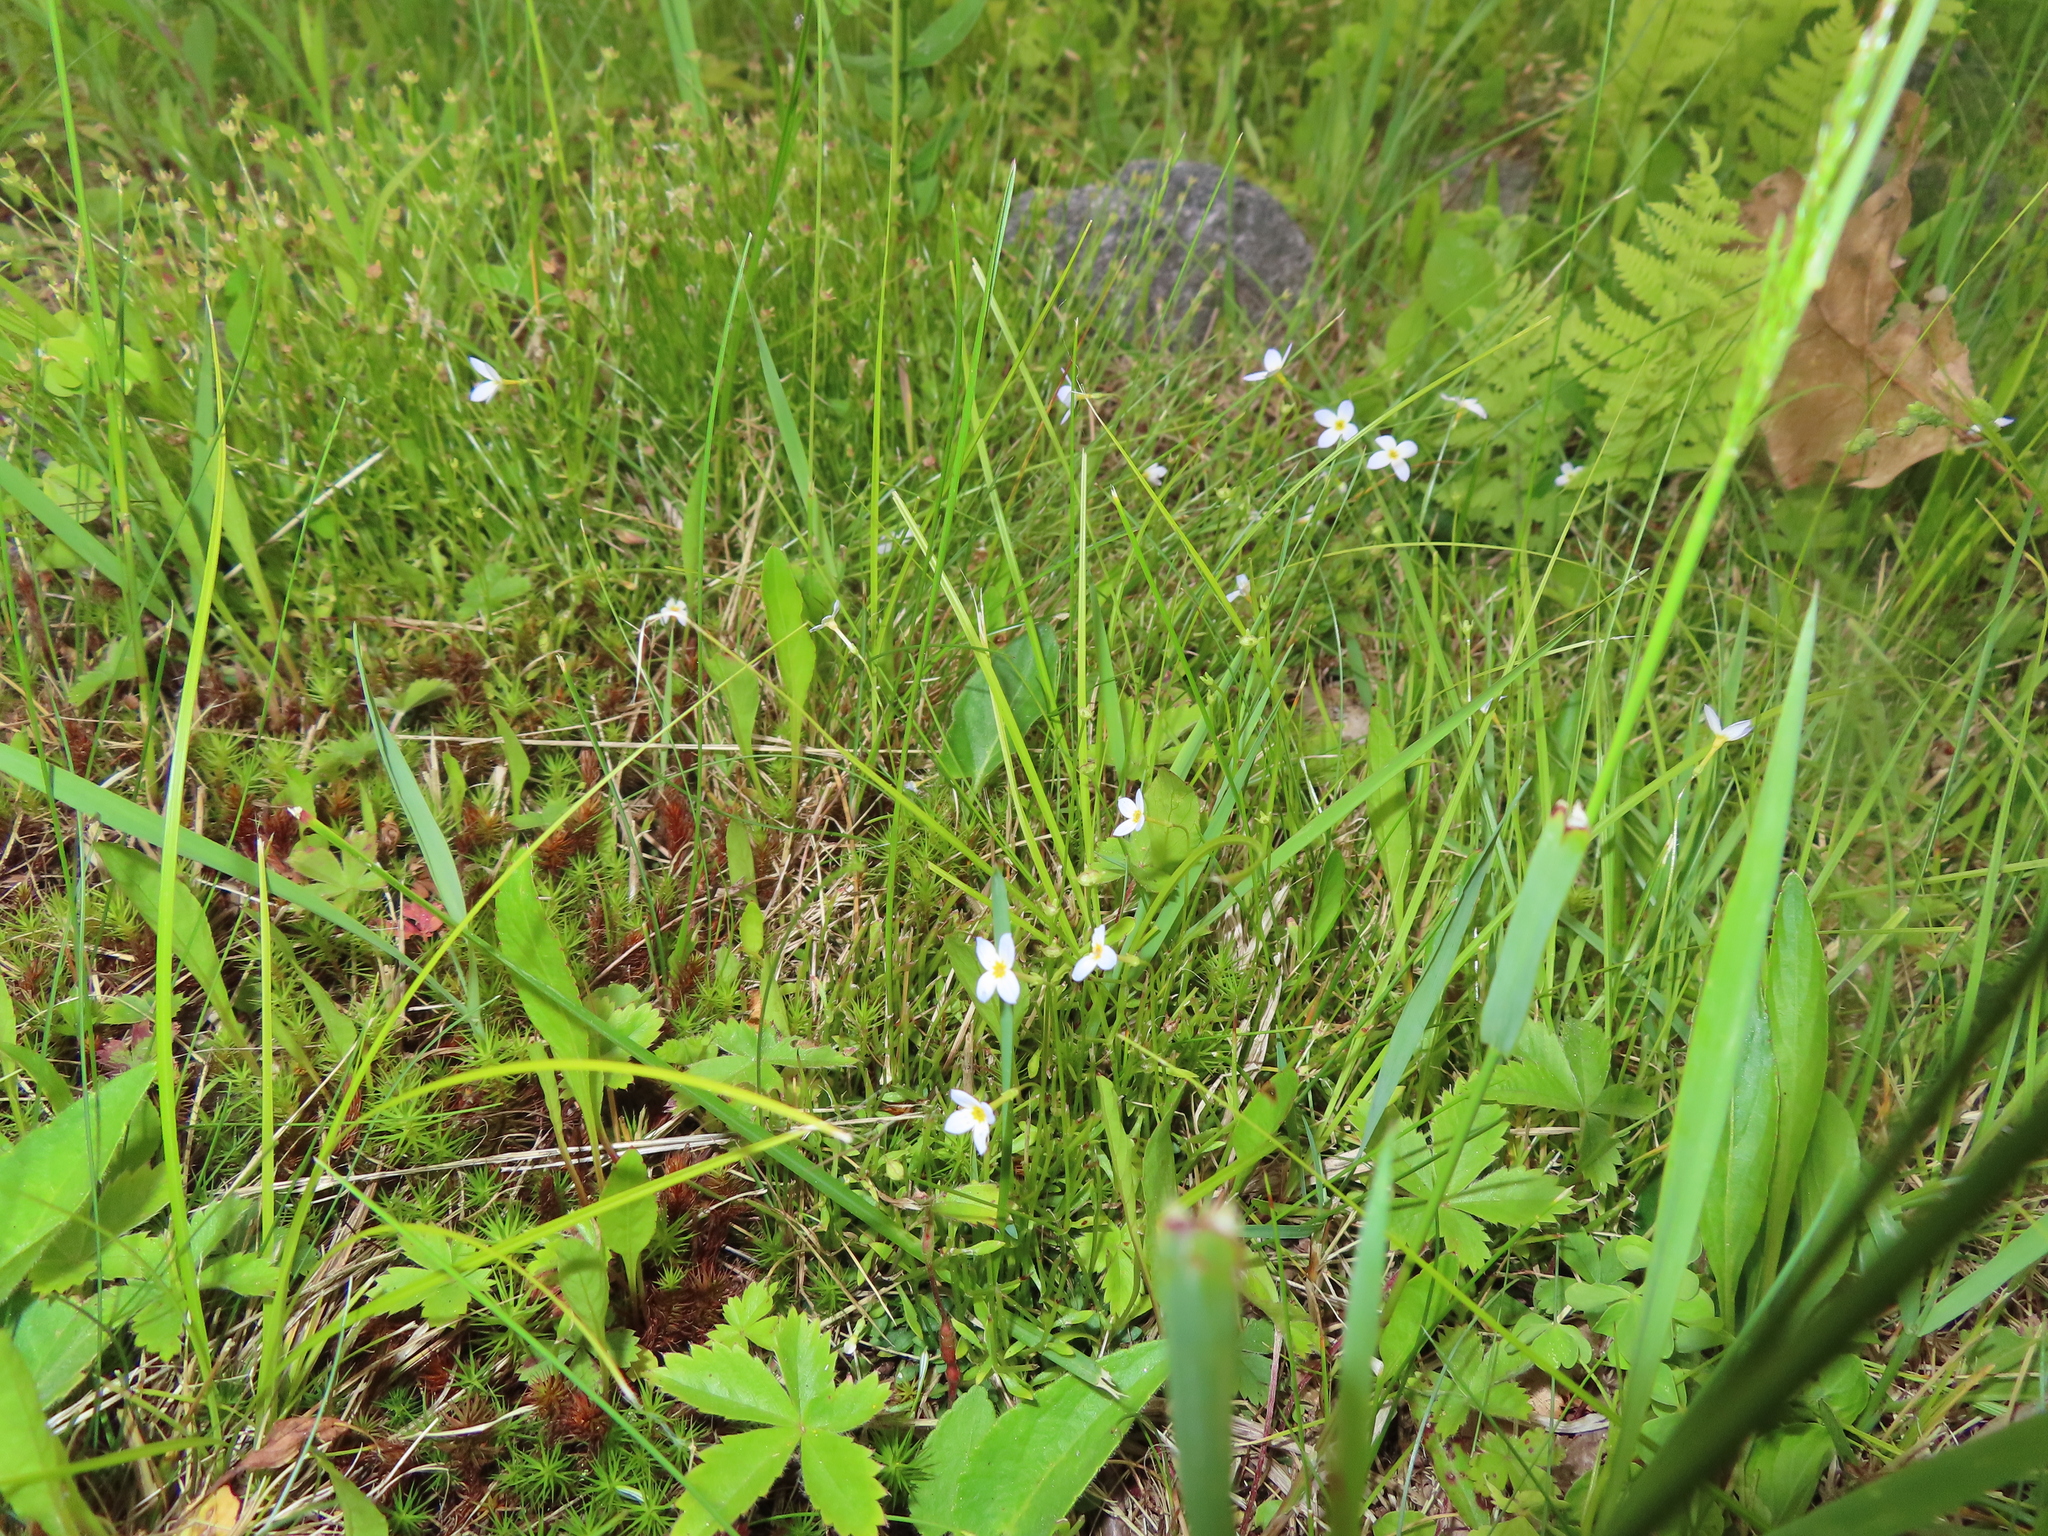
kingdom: Plantae
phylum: Tracheophyta
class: Magnoliopsida
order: Gentianales
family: Rubiaceae
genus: Houstonia
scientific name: Houstonia caerulea
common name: Bluets
